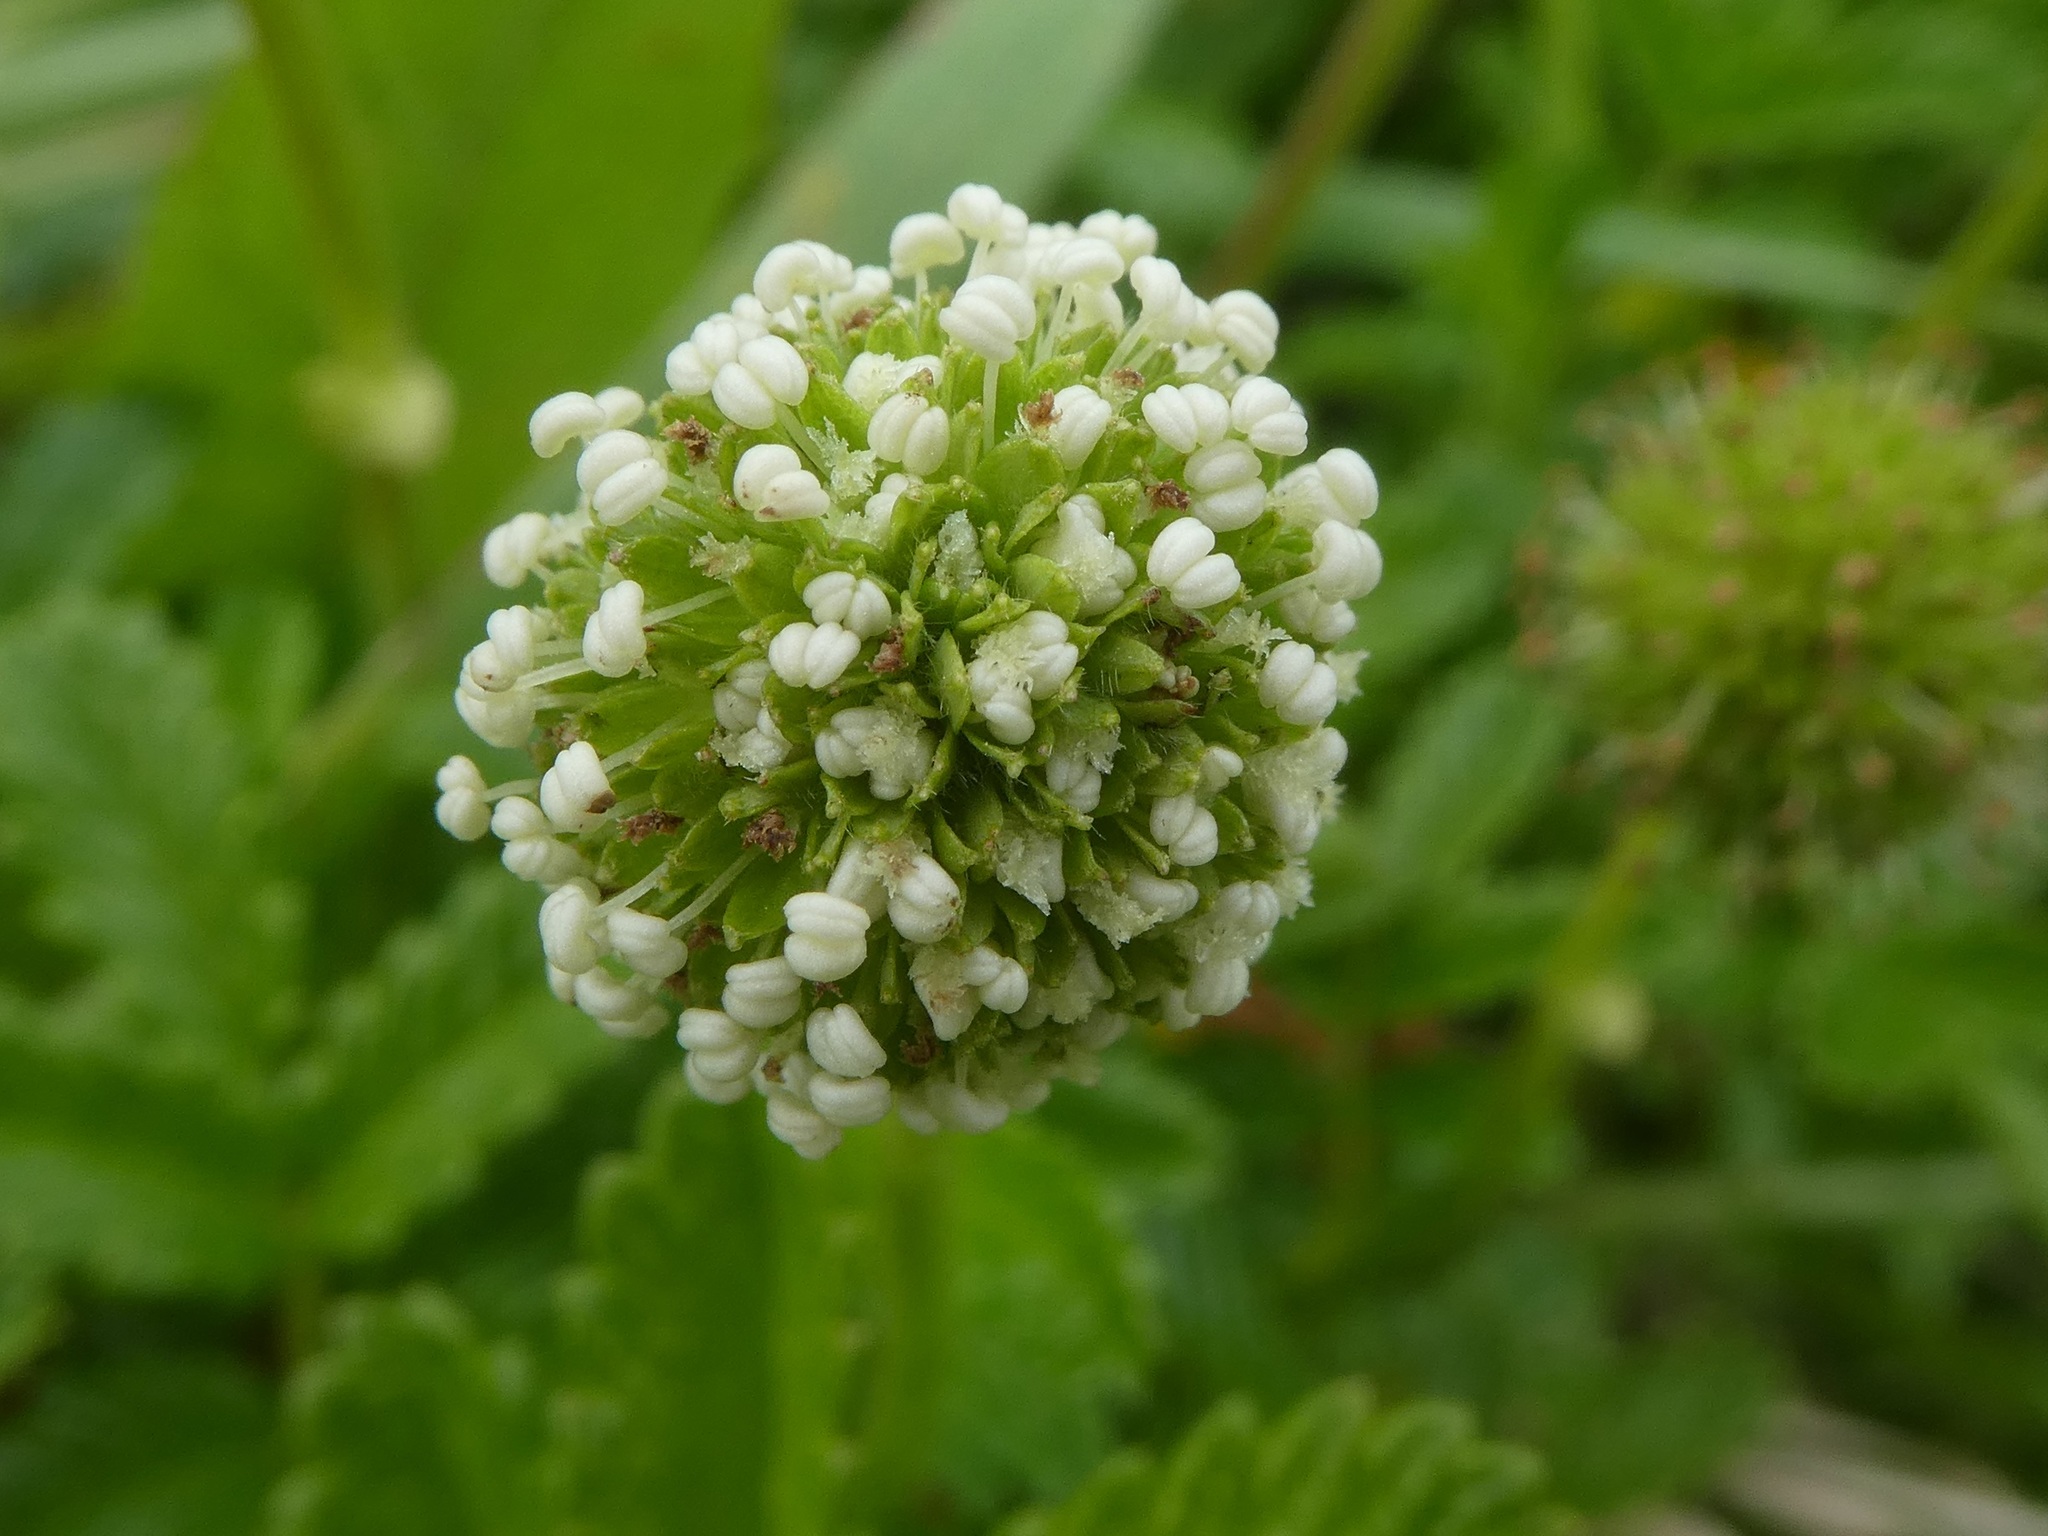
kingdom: Plantae
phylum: Tracheophyta
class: Magnoliopsida
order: Rosales
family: Rosaceae
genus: Acaena
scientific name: Acaena pallida
